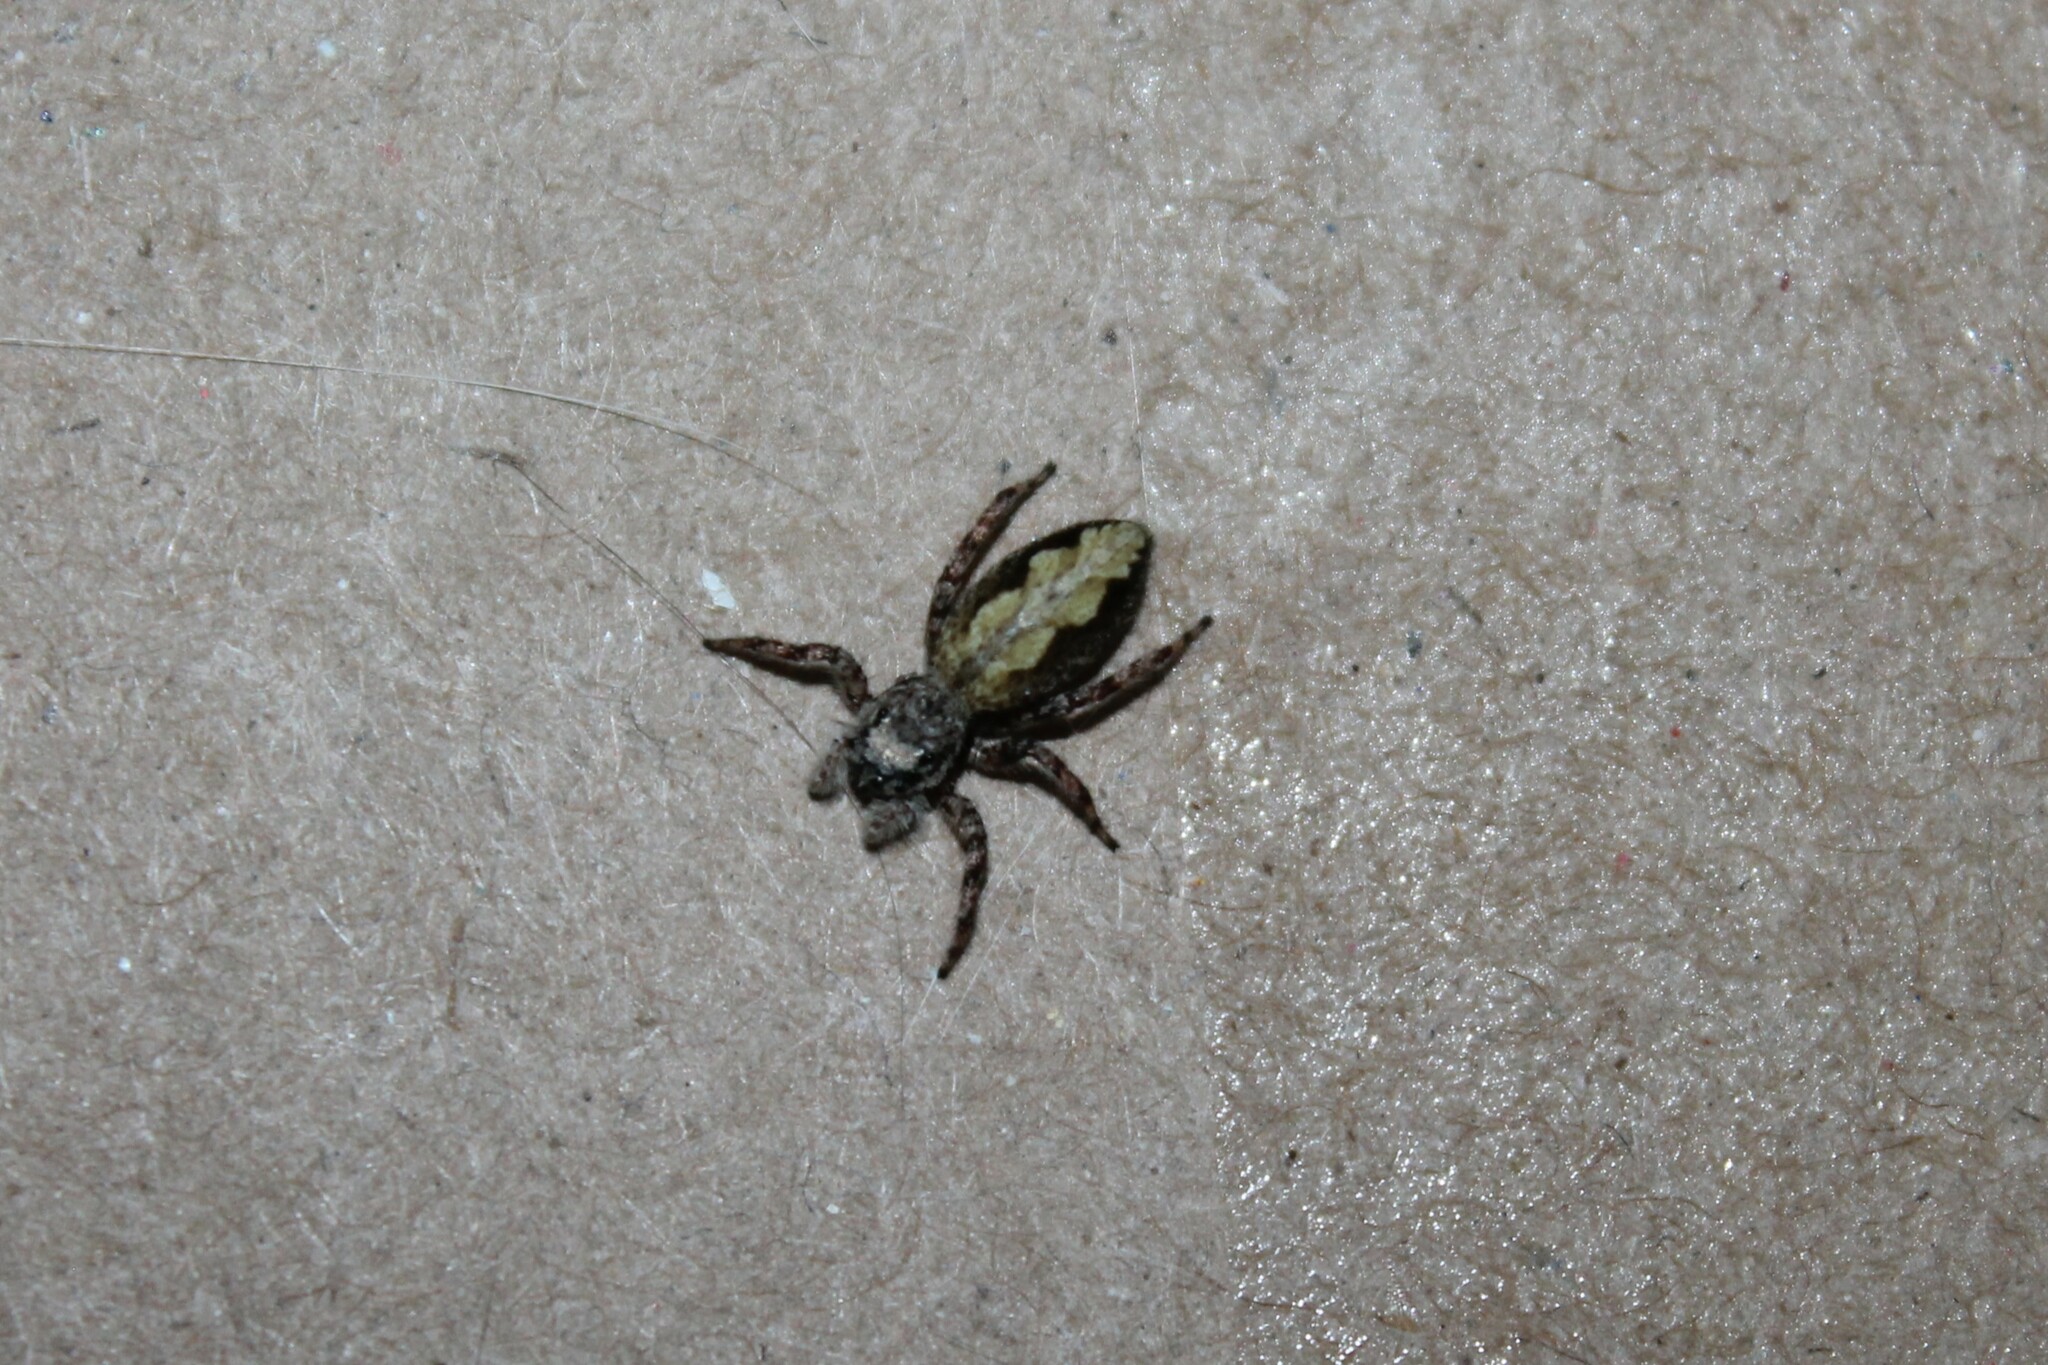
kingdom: Animalia
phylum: Arthropoda
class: Arachnida
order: Araneae
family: Salticidae
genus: Platycryptus
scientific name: Platycryptus undatus
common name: Tan jumping spider
